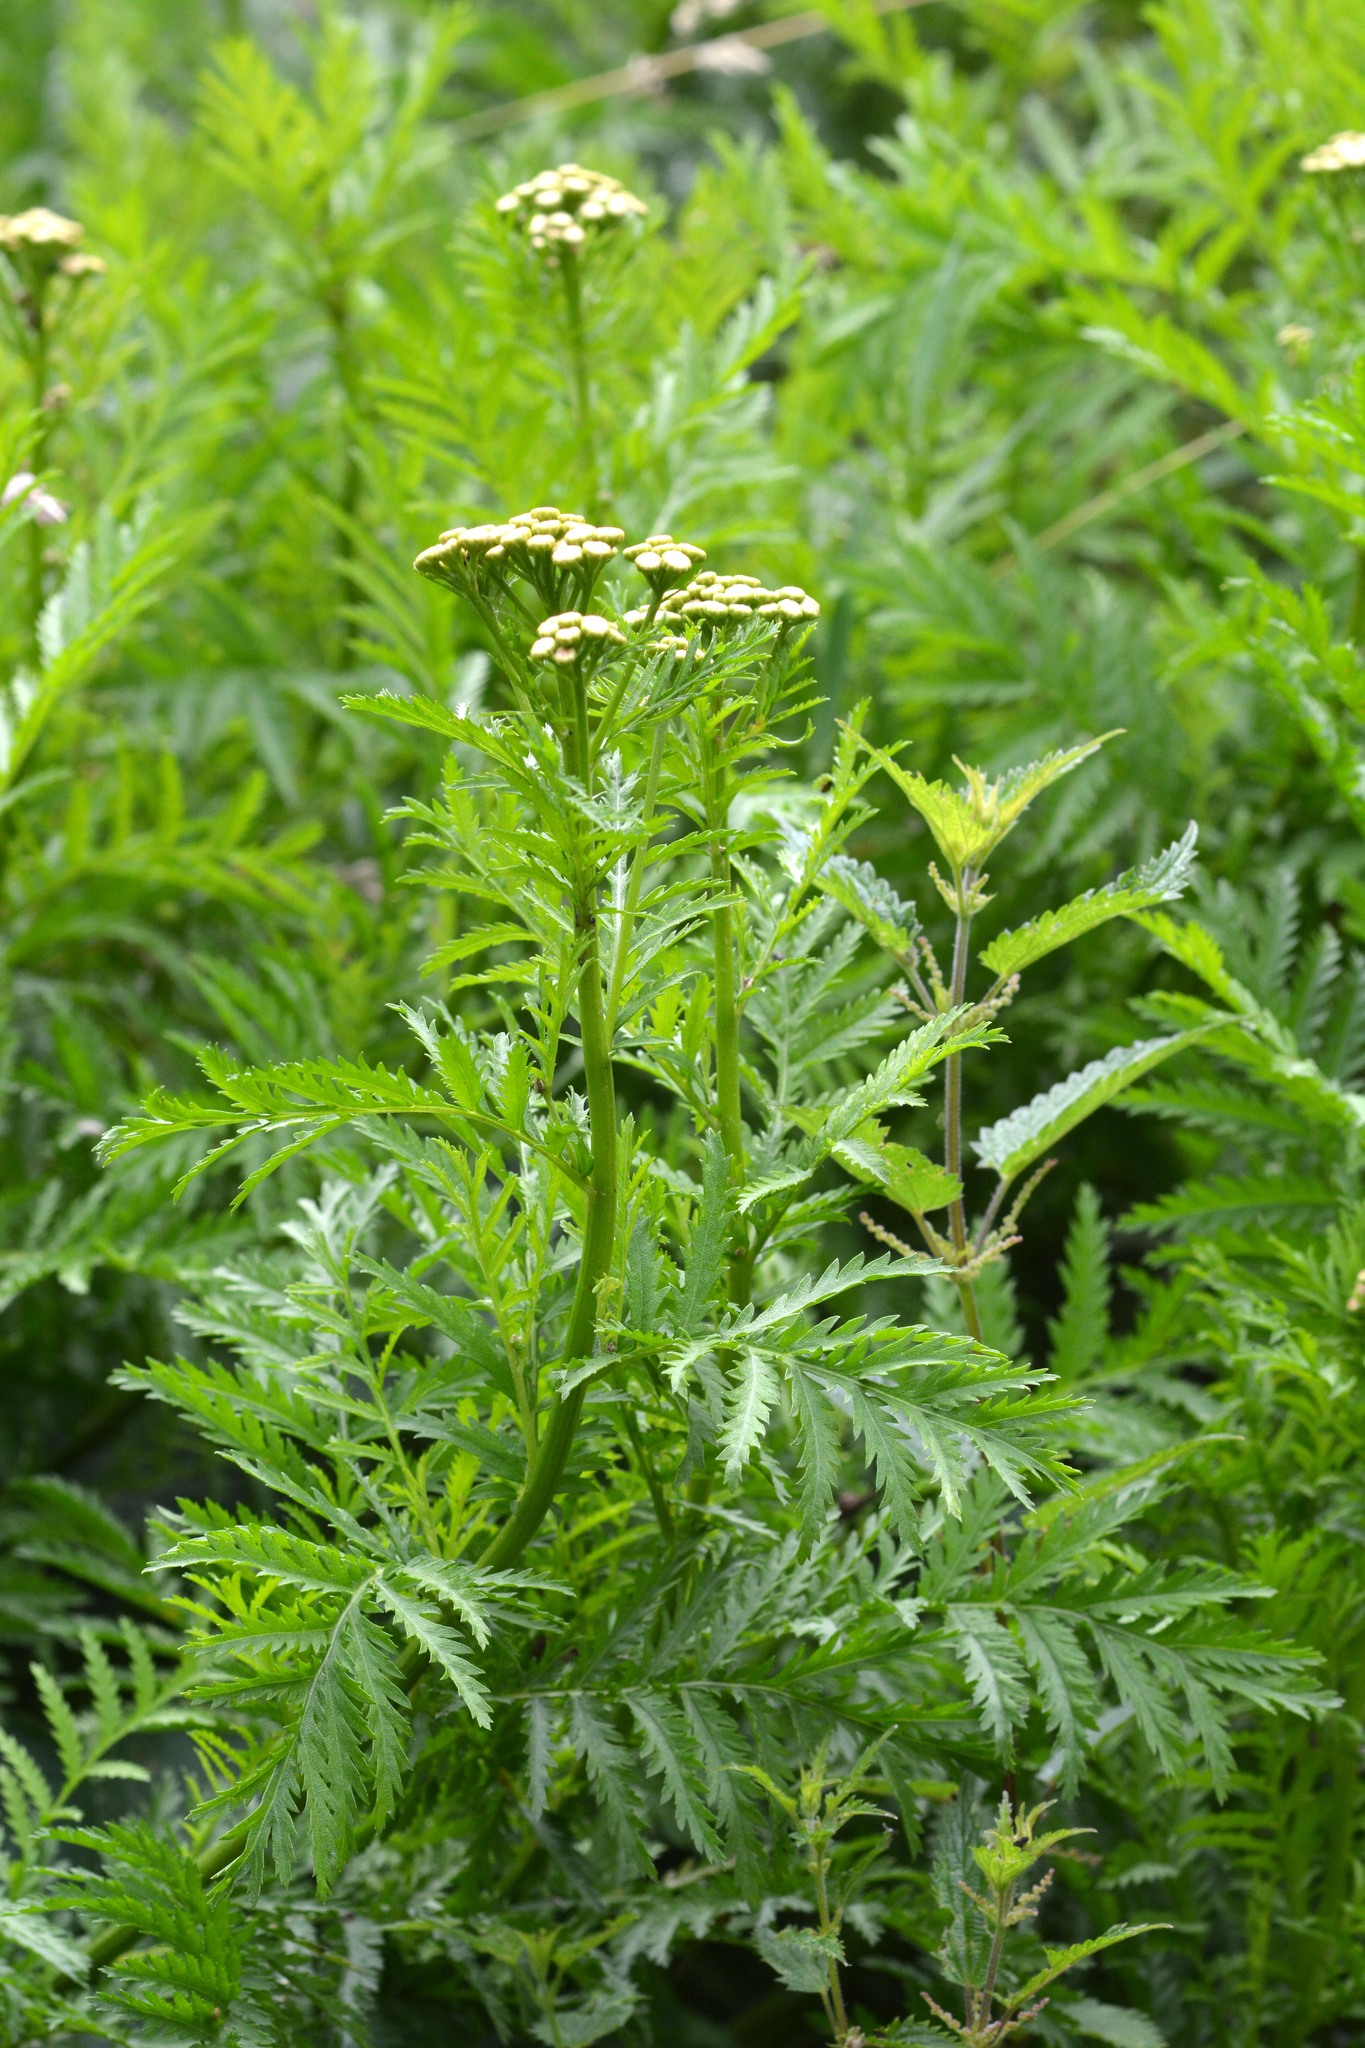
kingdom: Plantae
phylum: Tracheophyta
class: Magnoliopsida
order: Asterales
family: Asteraceae
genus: Tanacetum
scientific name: Tanacetum vulgare
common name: Common tansy
